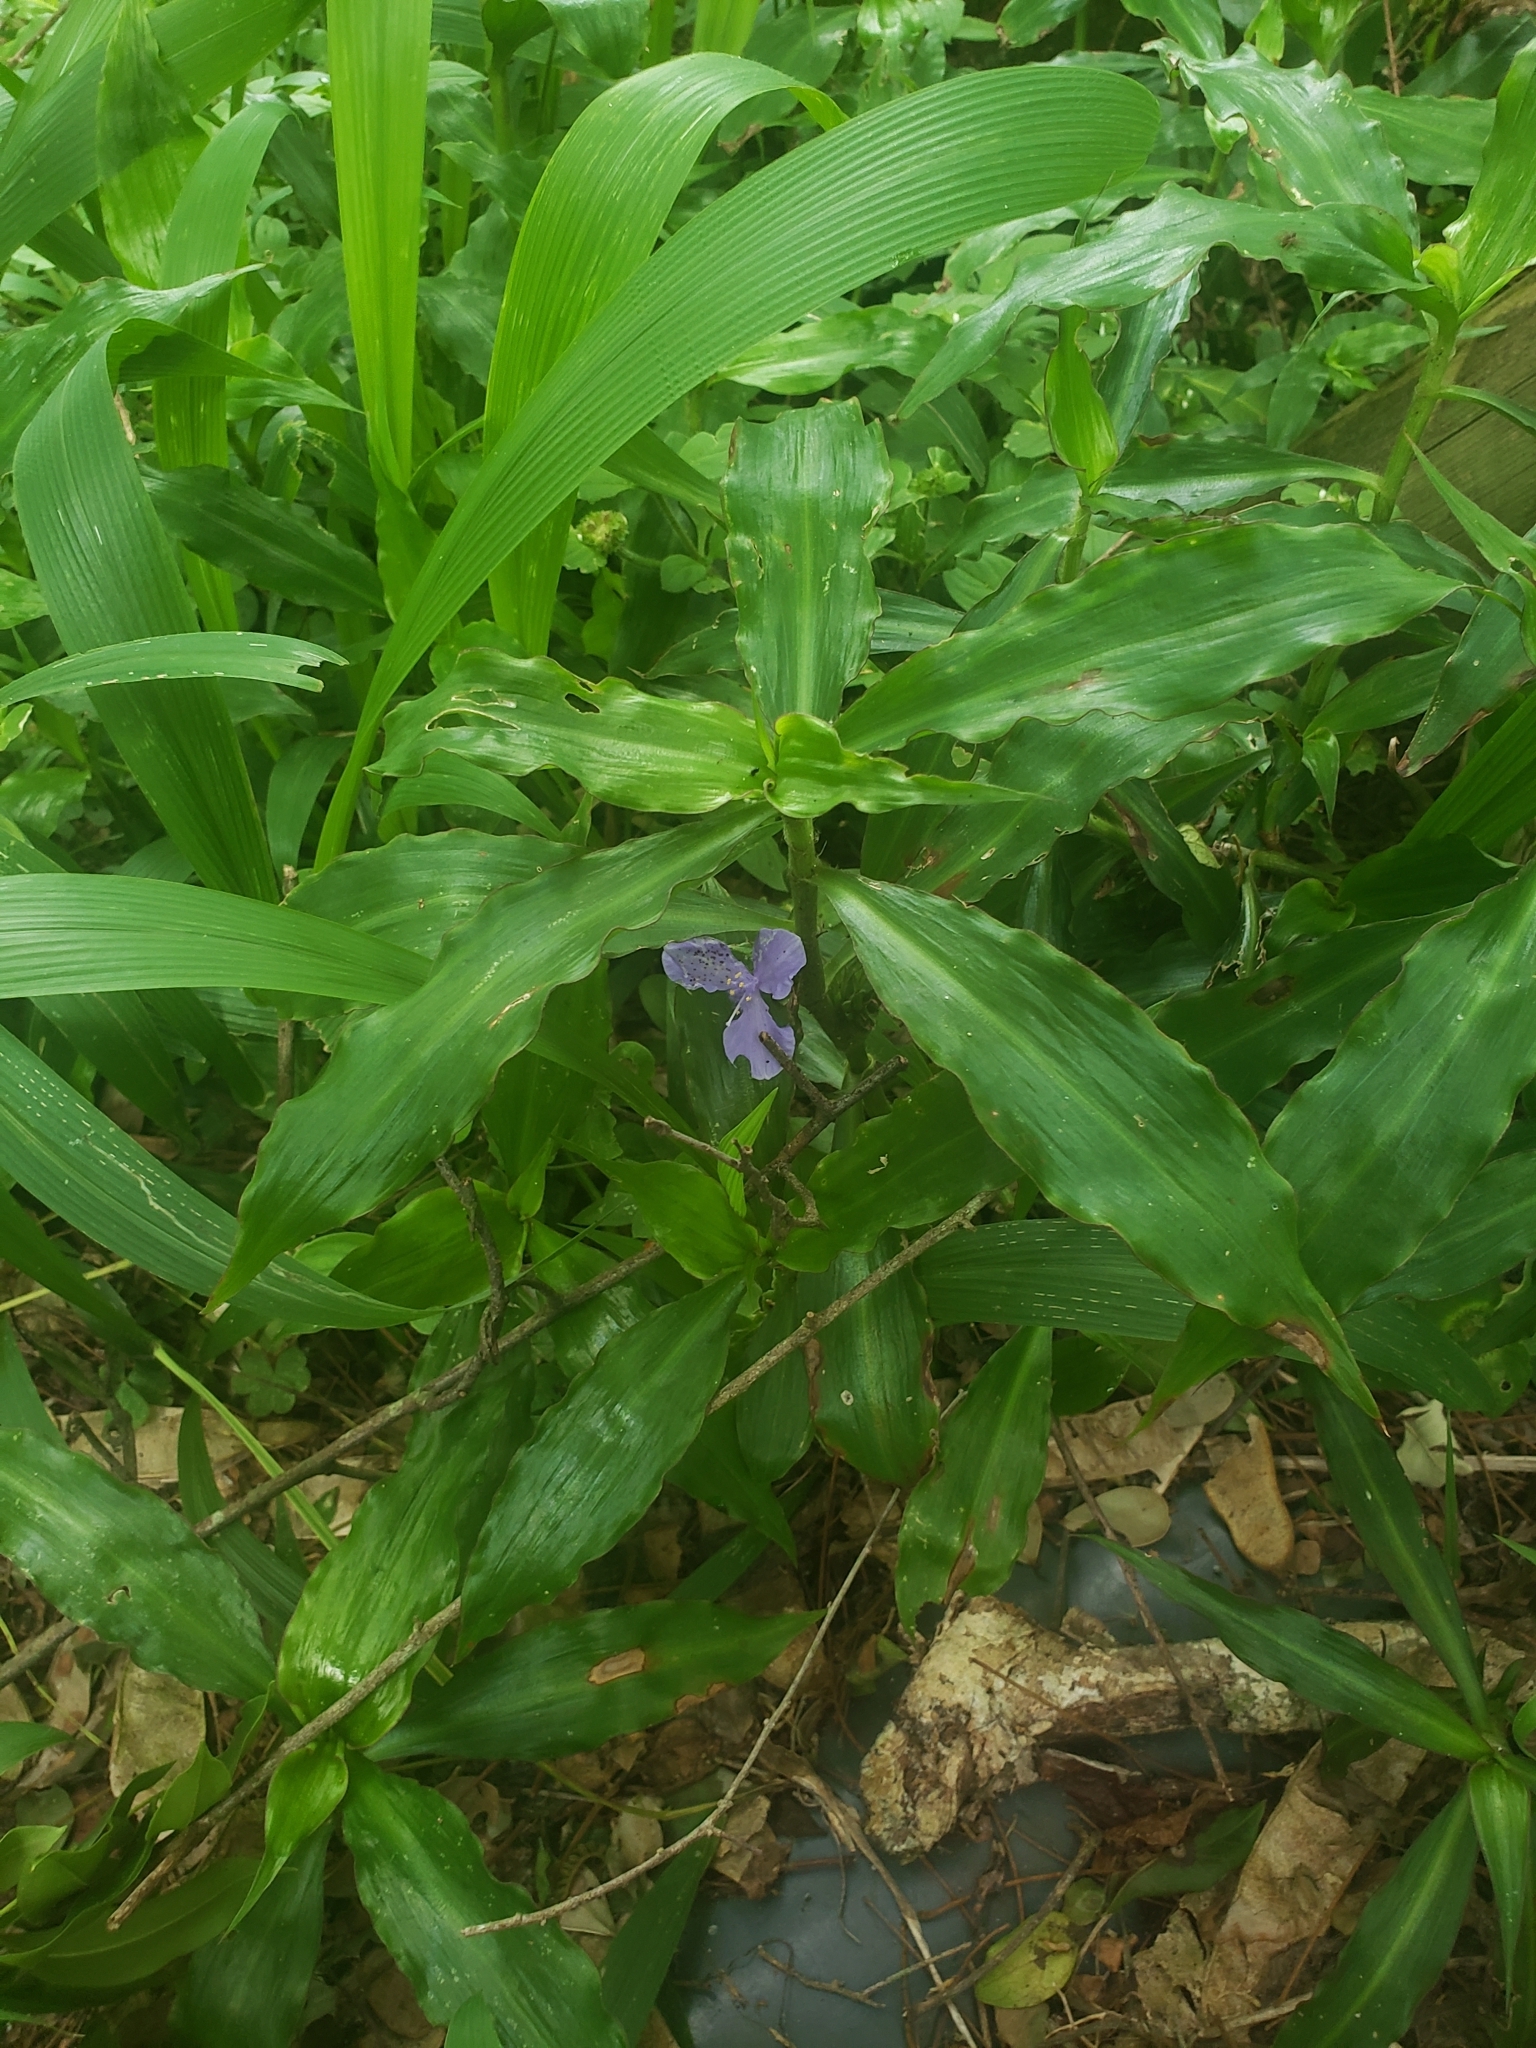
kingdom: Plantae
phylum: Tracheophyta
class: Liliopsida
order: Commelinales
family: Commelinaceae
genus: Coleotrype
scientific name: Coleotrype natalensis
